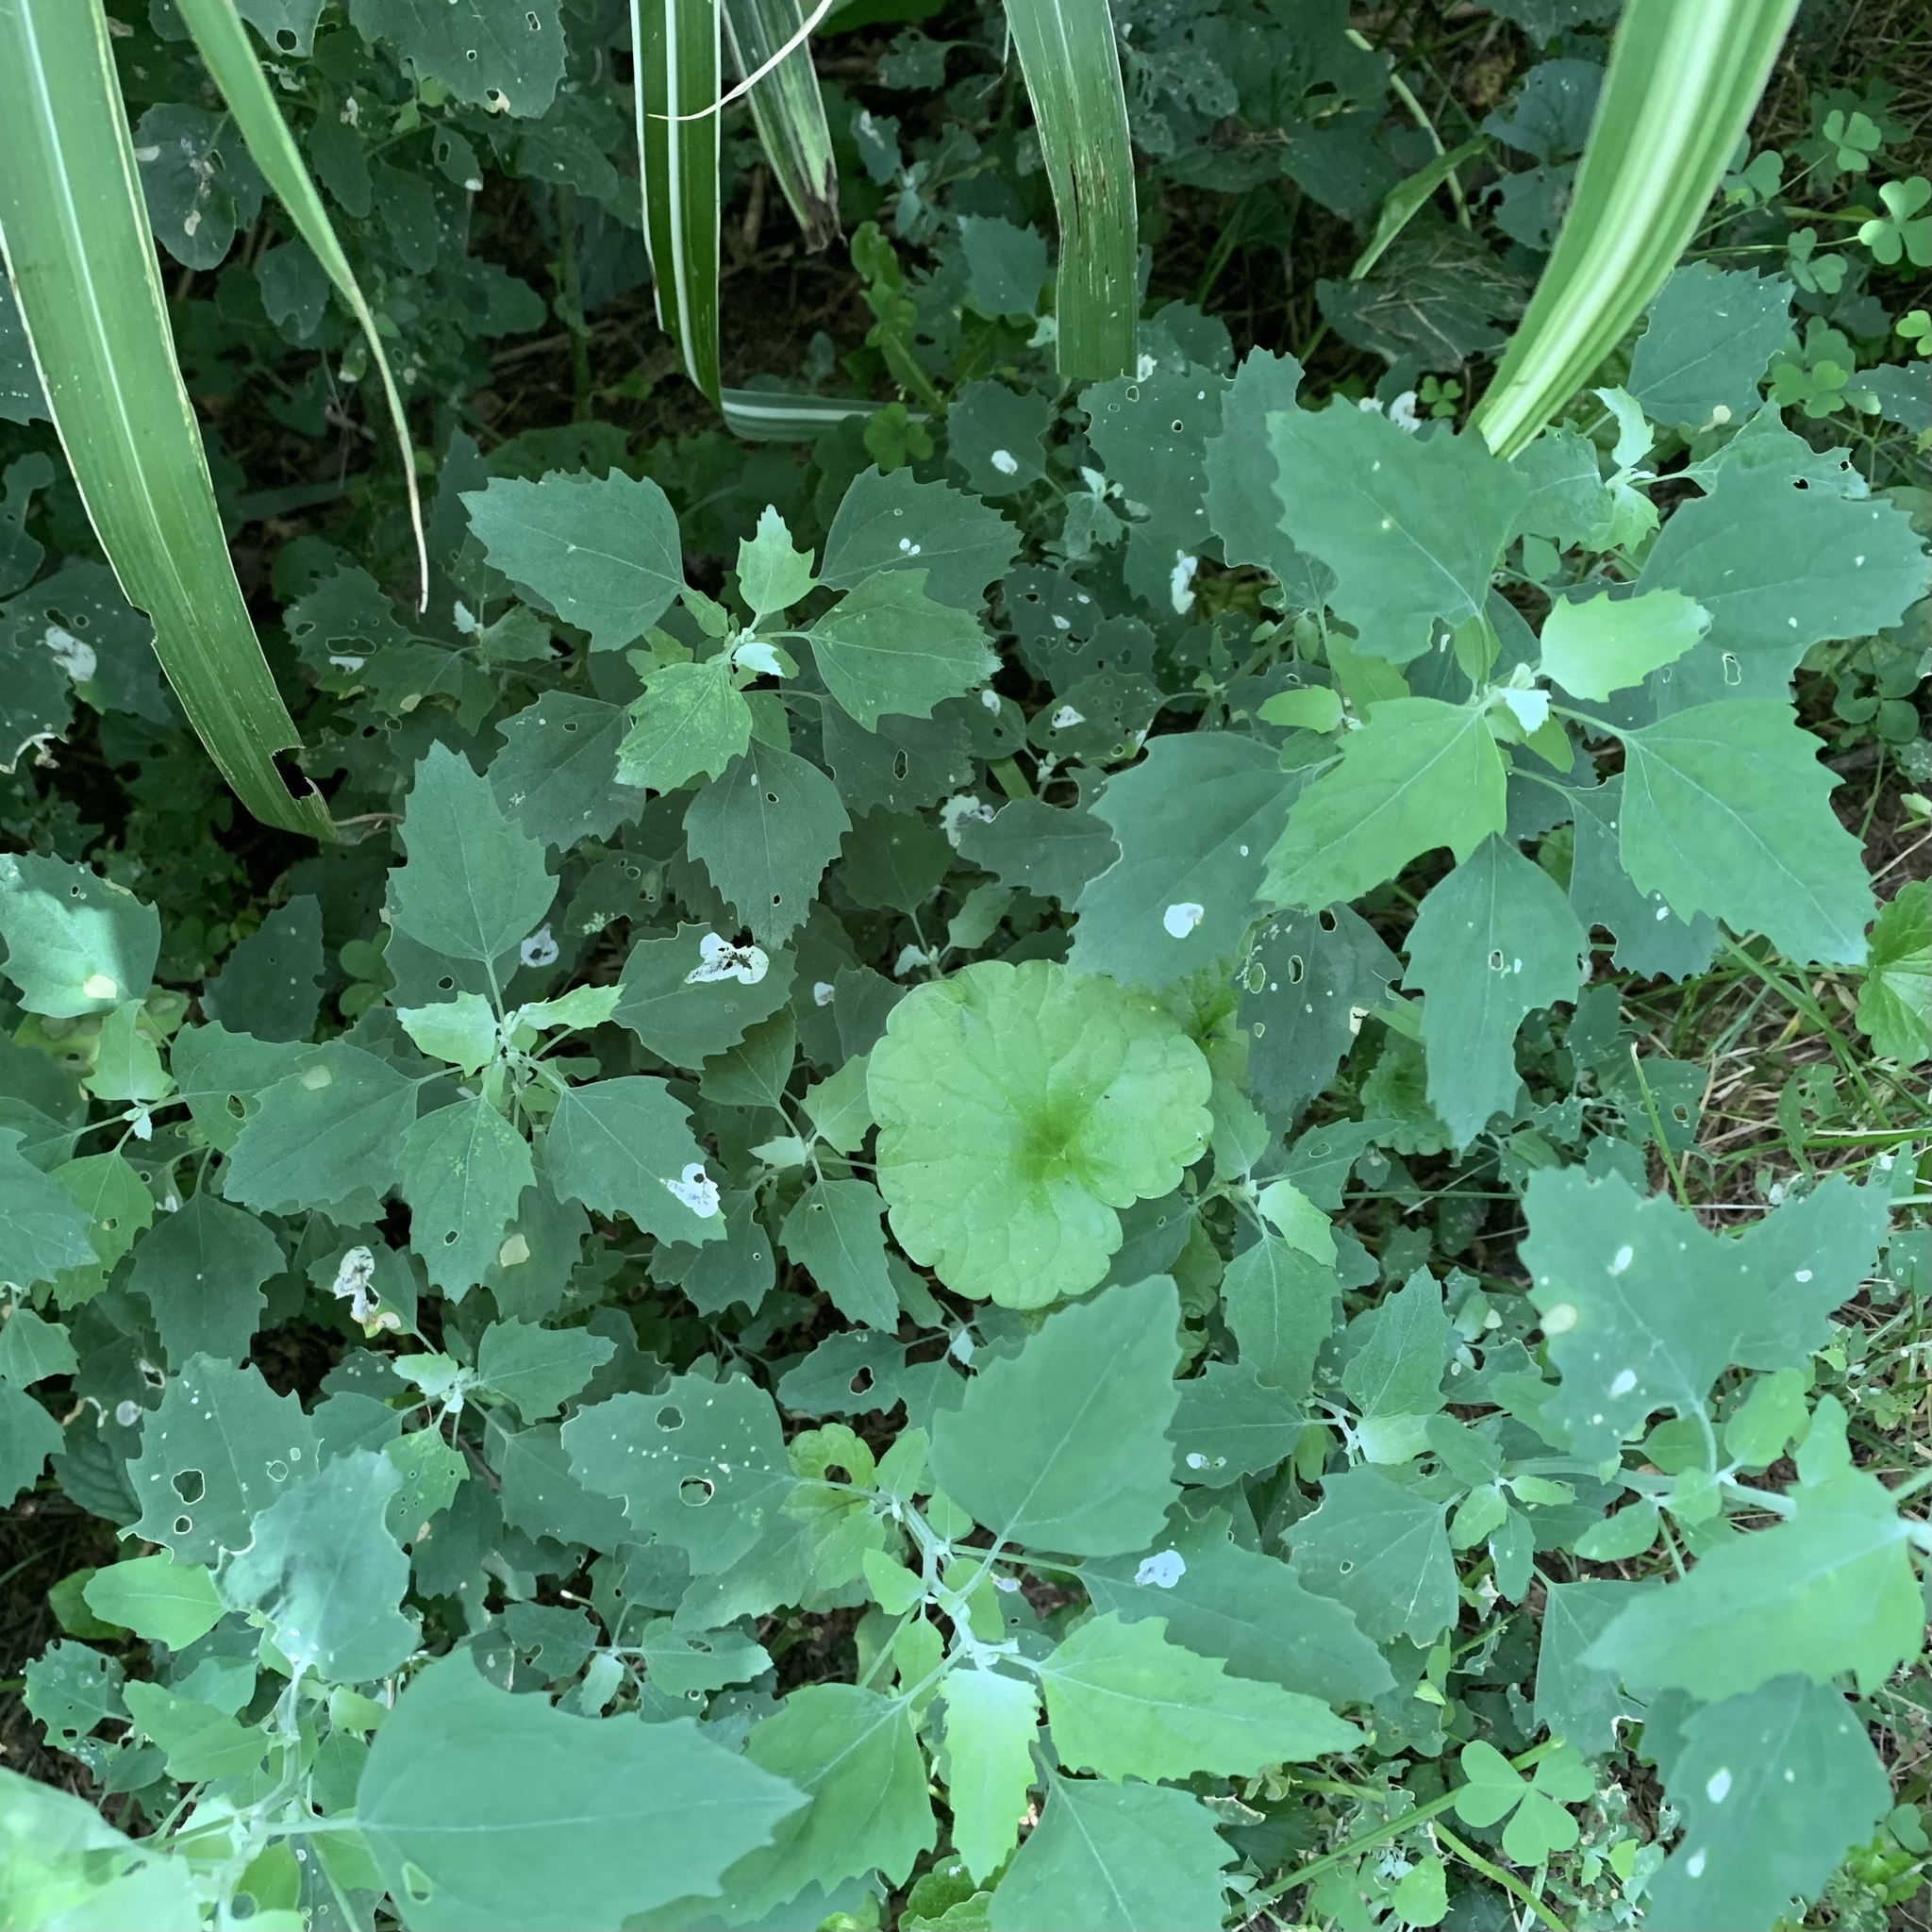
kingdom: Animalia
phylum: Arthropoda
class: Insecta
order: Lepidoptera
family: Gelechiidae
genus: Chrysoesthia
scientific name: Chrysoesthia sexguttella
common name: Moth
